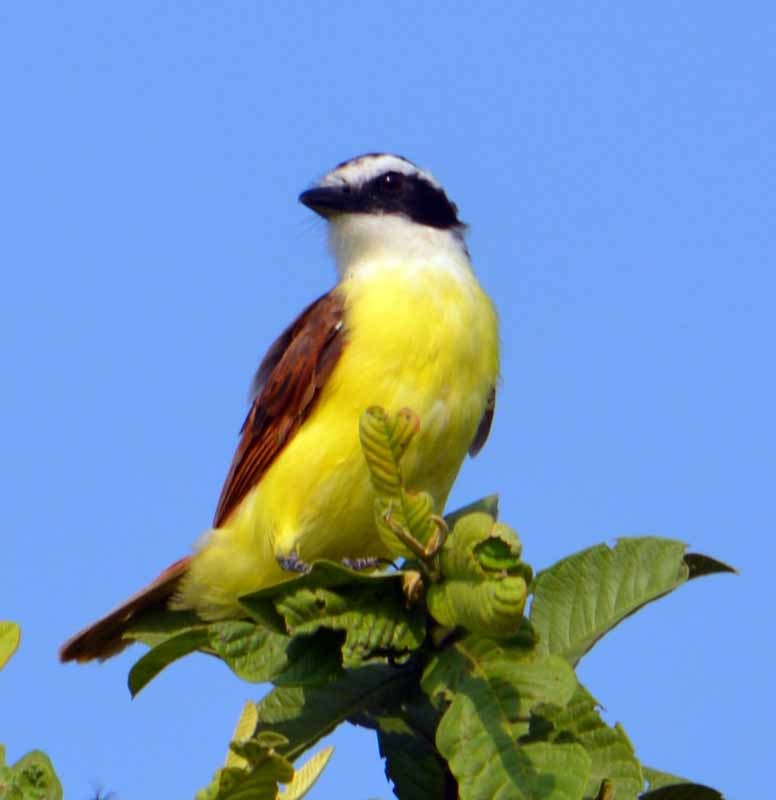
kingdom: Animalia
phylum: Chordata
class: Aves
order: Passeriformes
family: Tyrannidae
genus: Pitangus
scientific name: Pitangus sulphuratus
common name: Great kiskadee
